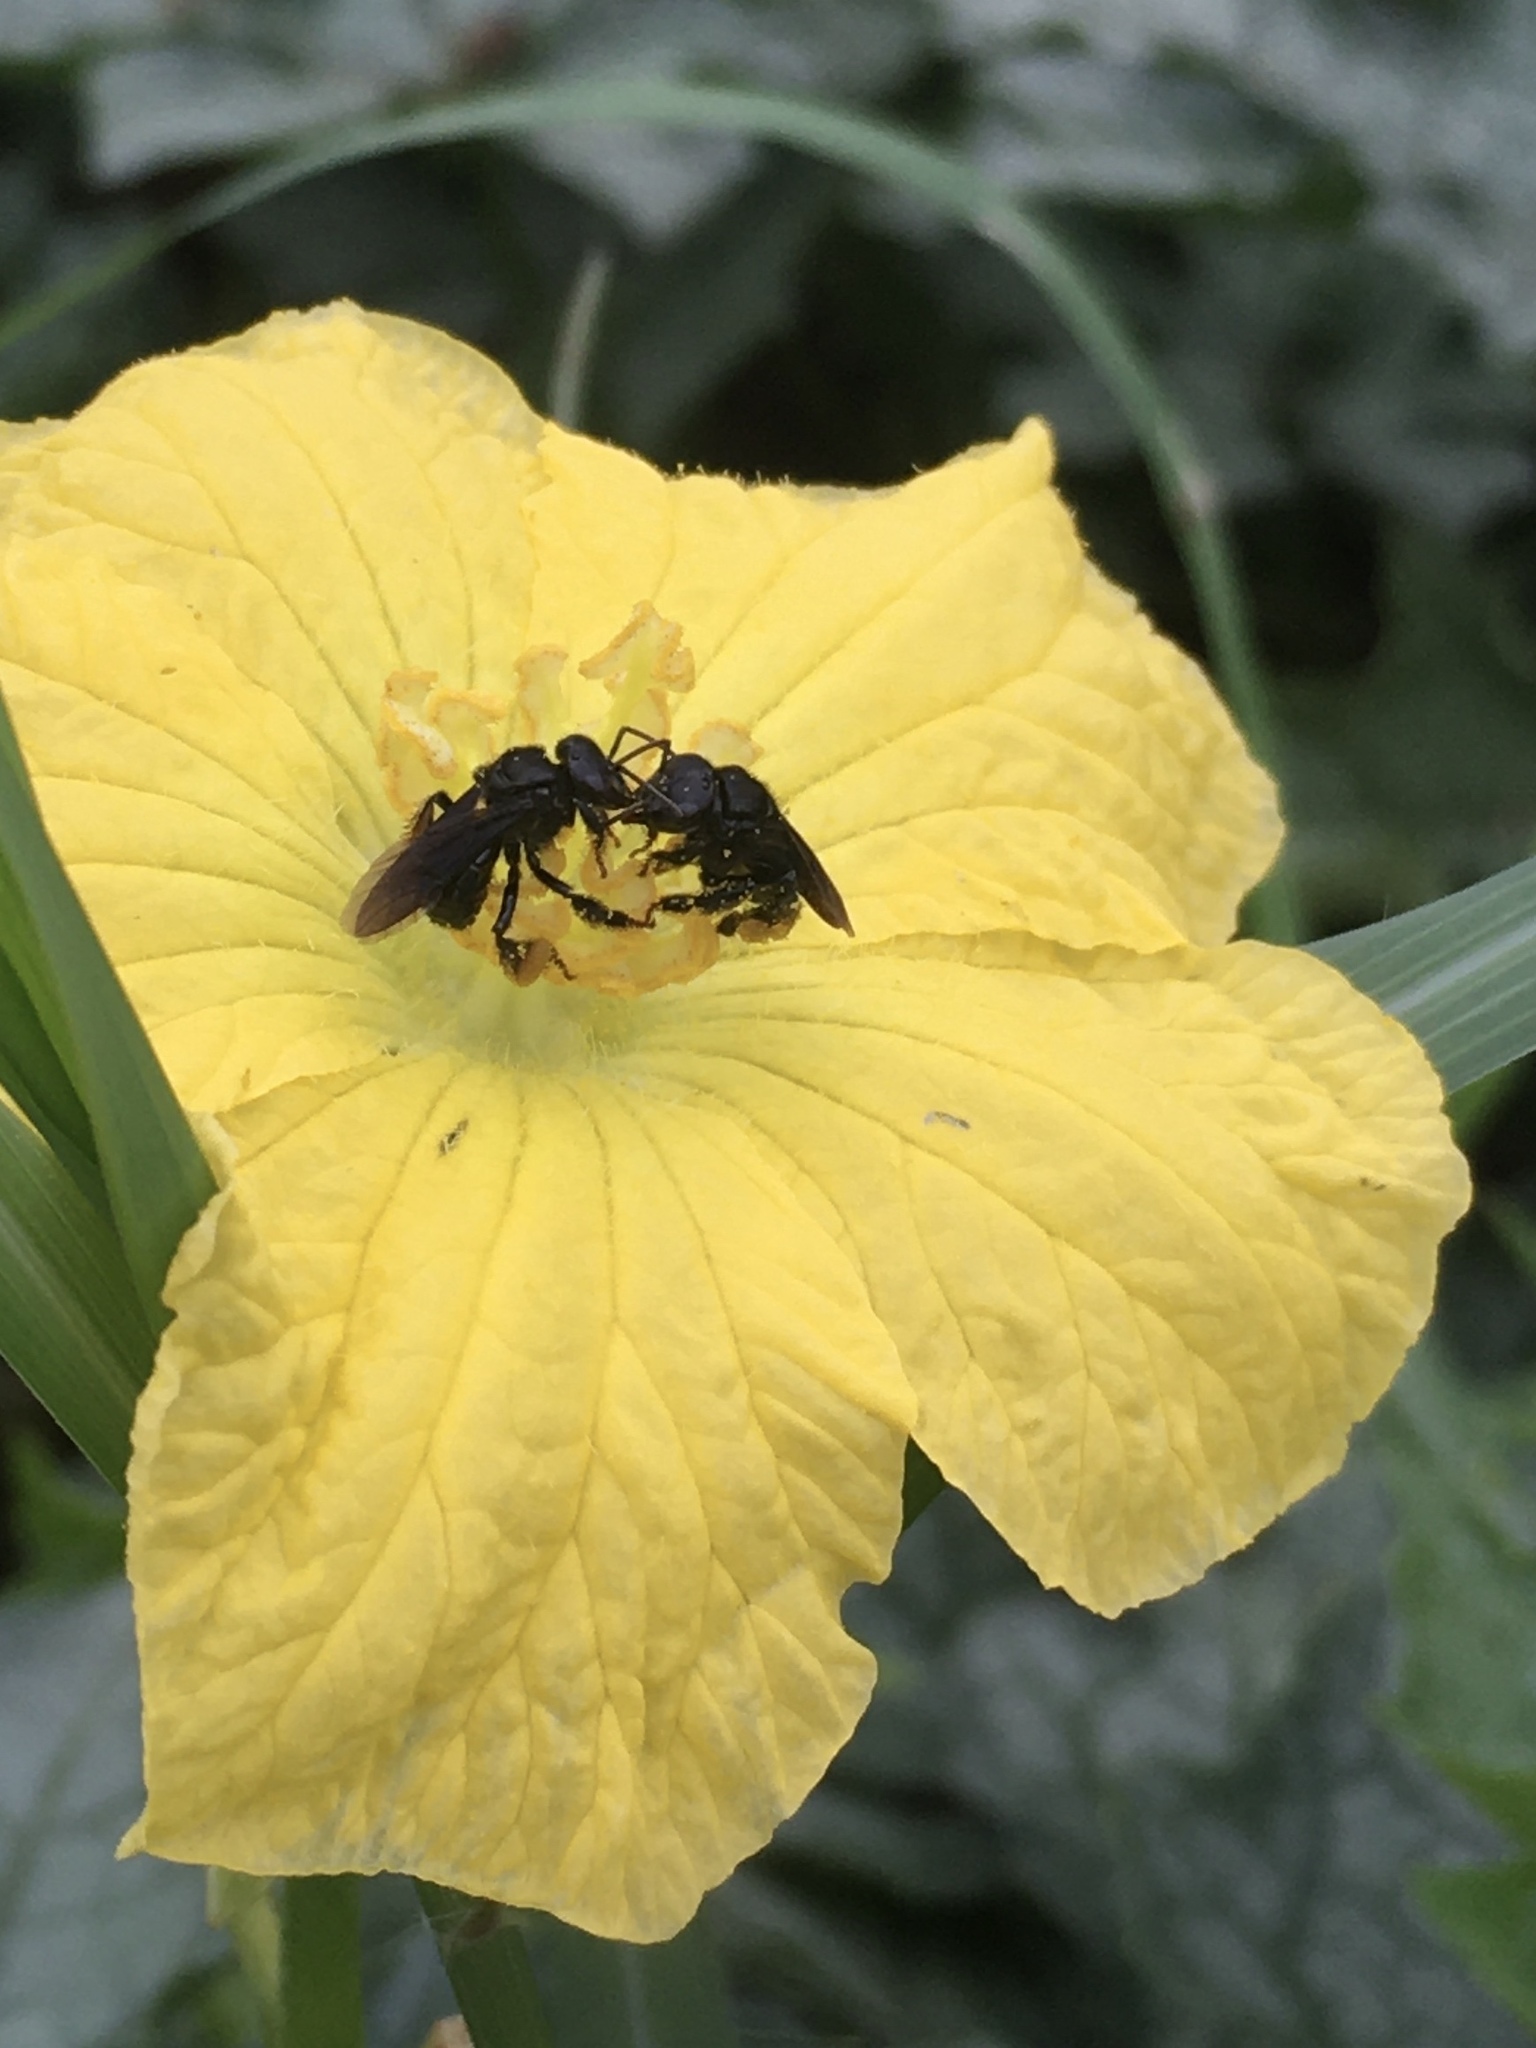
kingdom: Animalia
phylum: Arthropoda
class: Insecta
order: Hymenoptera
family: Apidae
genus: Trigona
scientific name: Trigona spinipes
